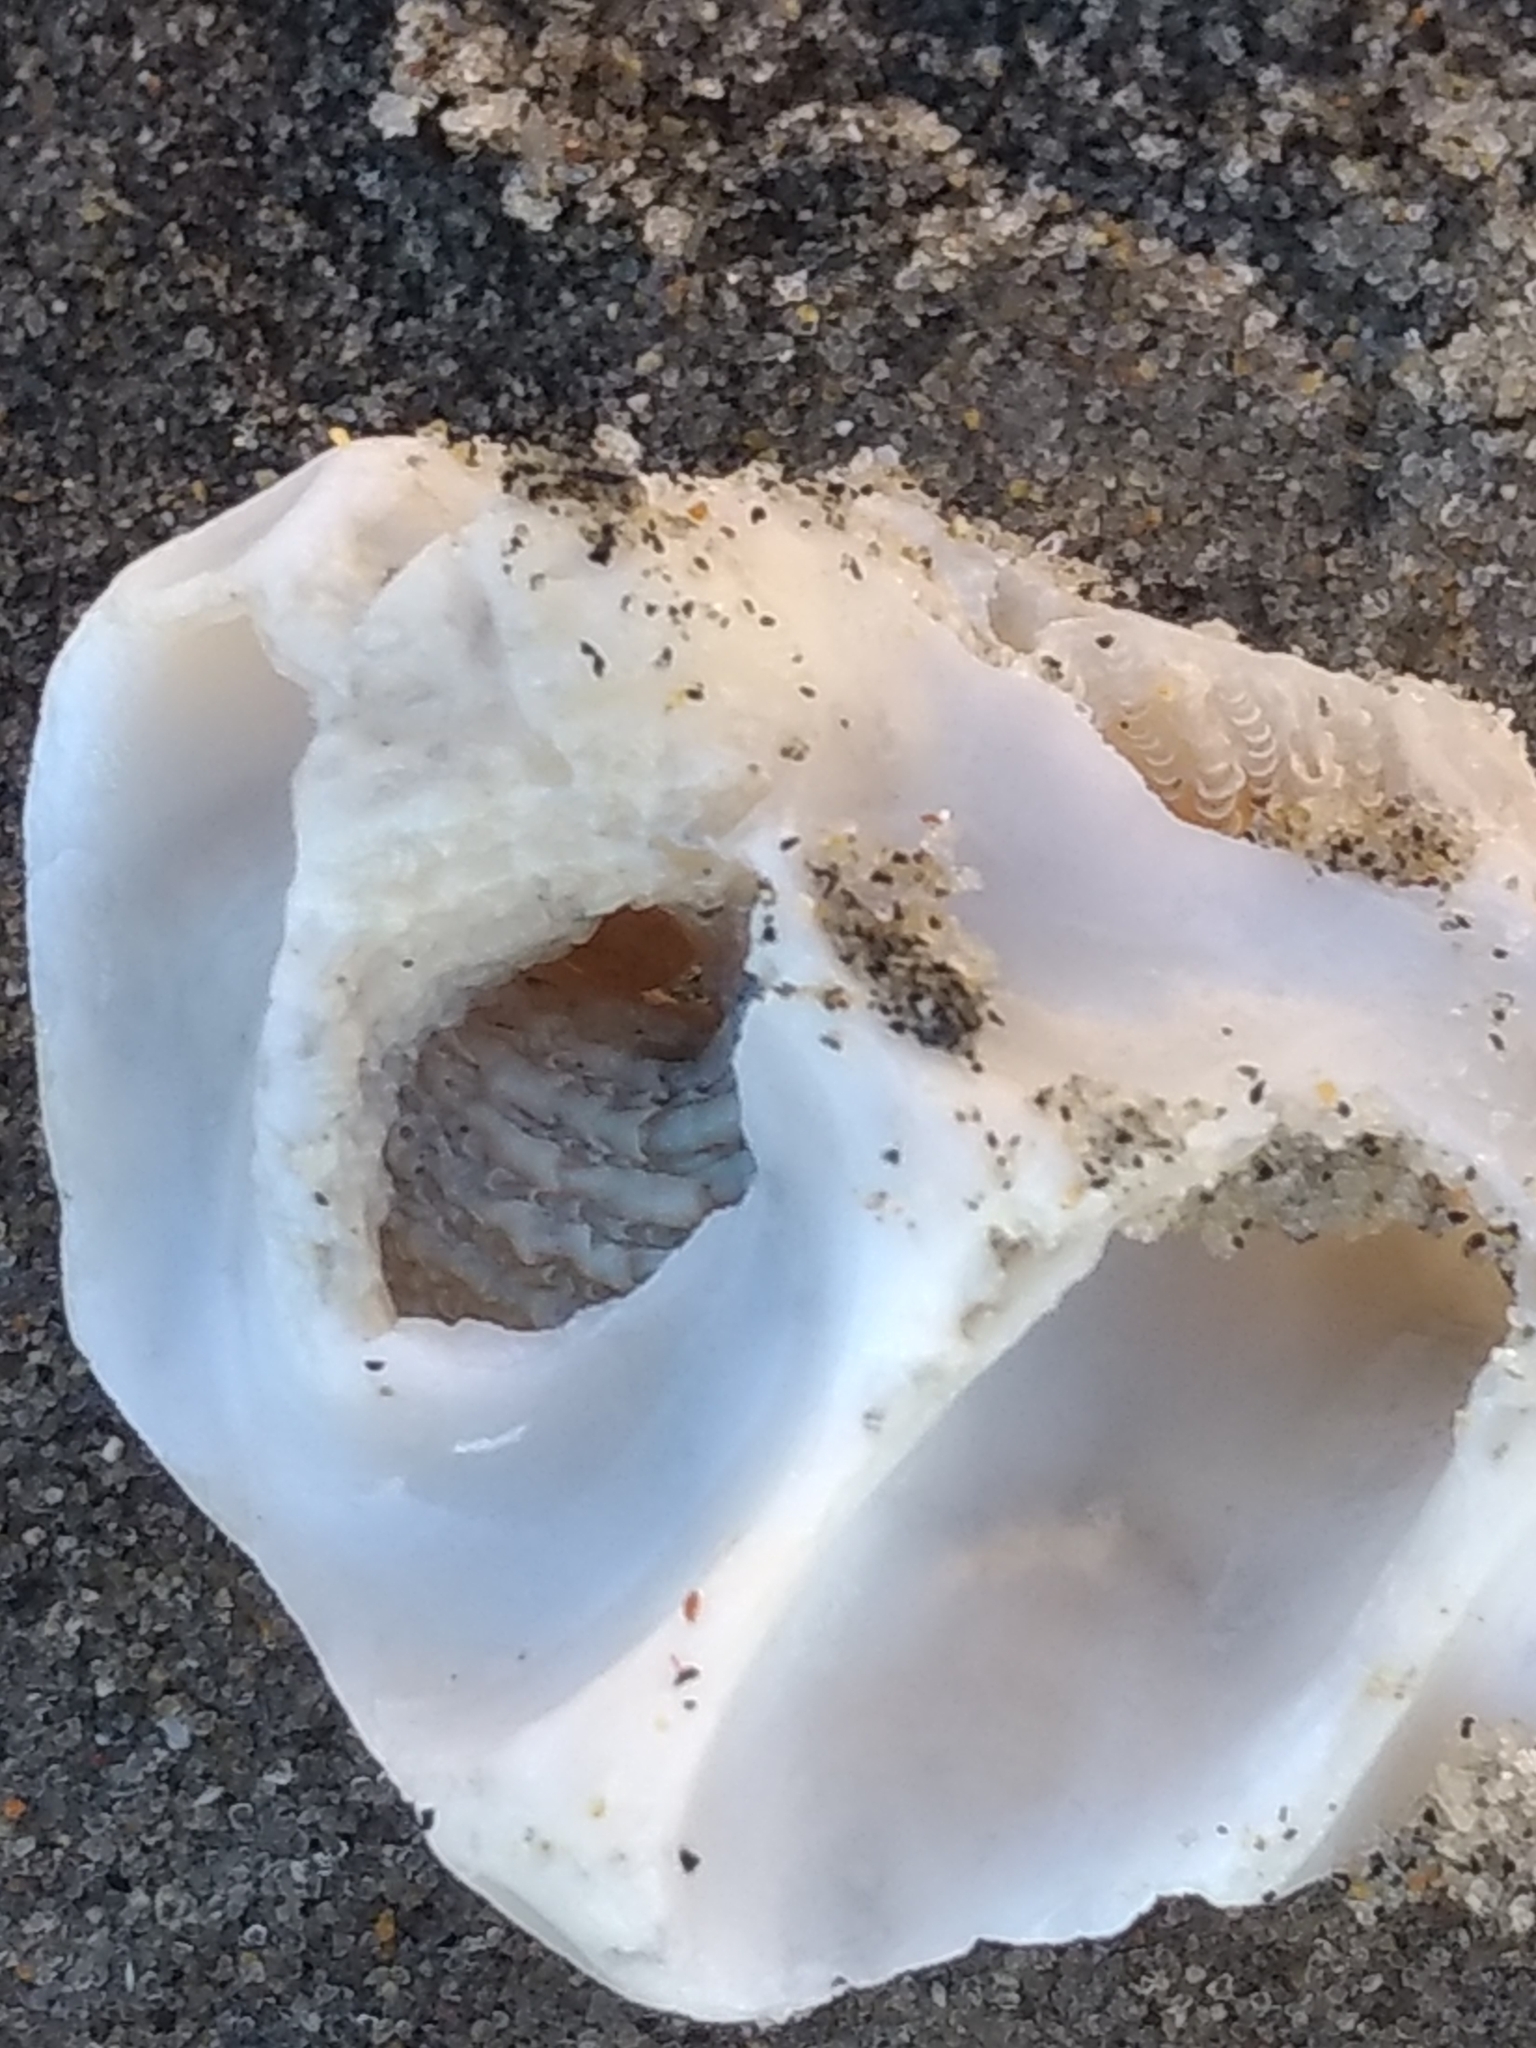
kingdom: Animalia
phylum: Mollusca
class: Gastropoda
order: Littorinimorpha
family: Vermetidae
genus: Thylacodes
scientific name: Thylacodes squamigerus
